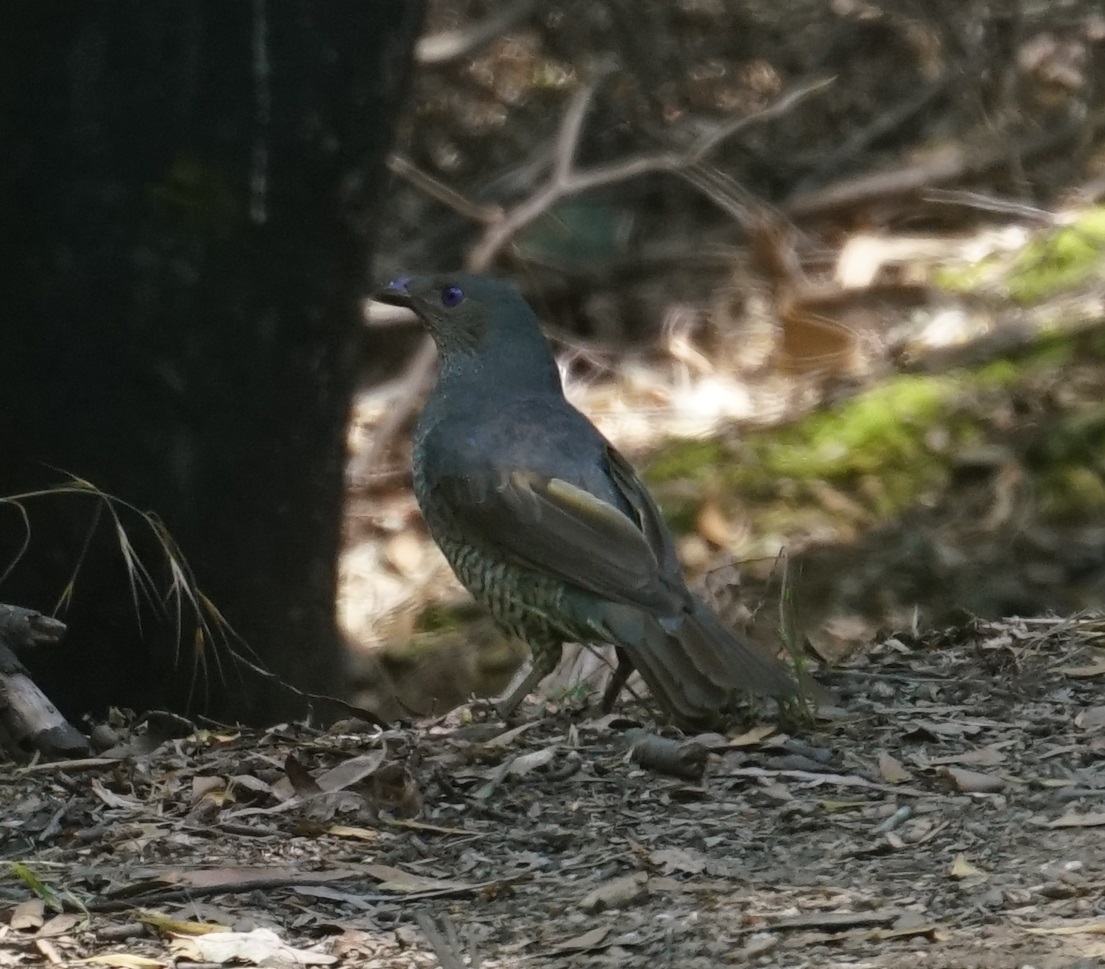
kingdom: Animalia
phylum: Chordata
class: Aves
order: Passeriformes
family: Ptilonorhynchidae
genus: Ptilonorhynchus
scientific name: Ptilonorhynchus violaceus
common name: Satin bowerbird
